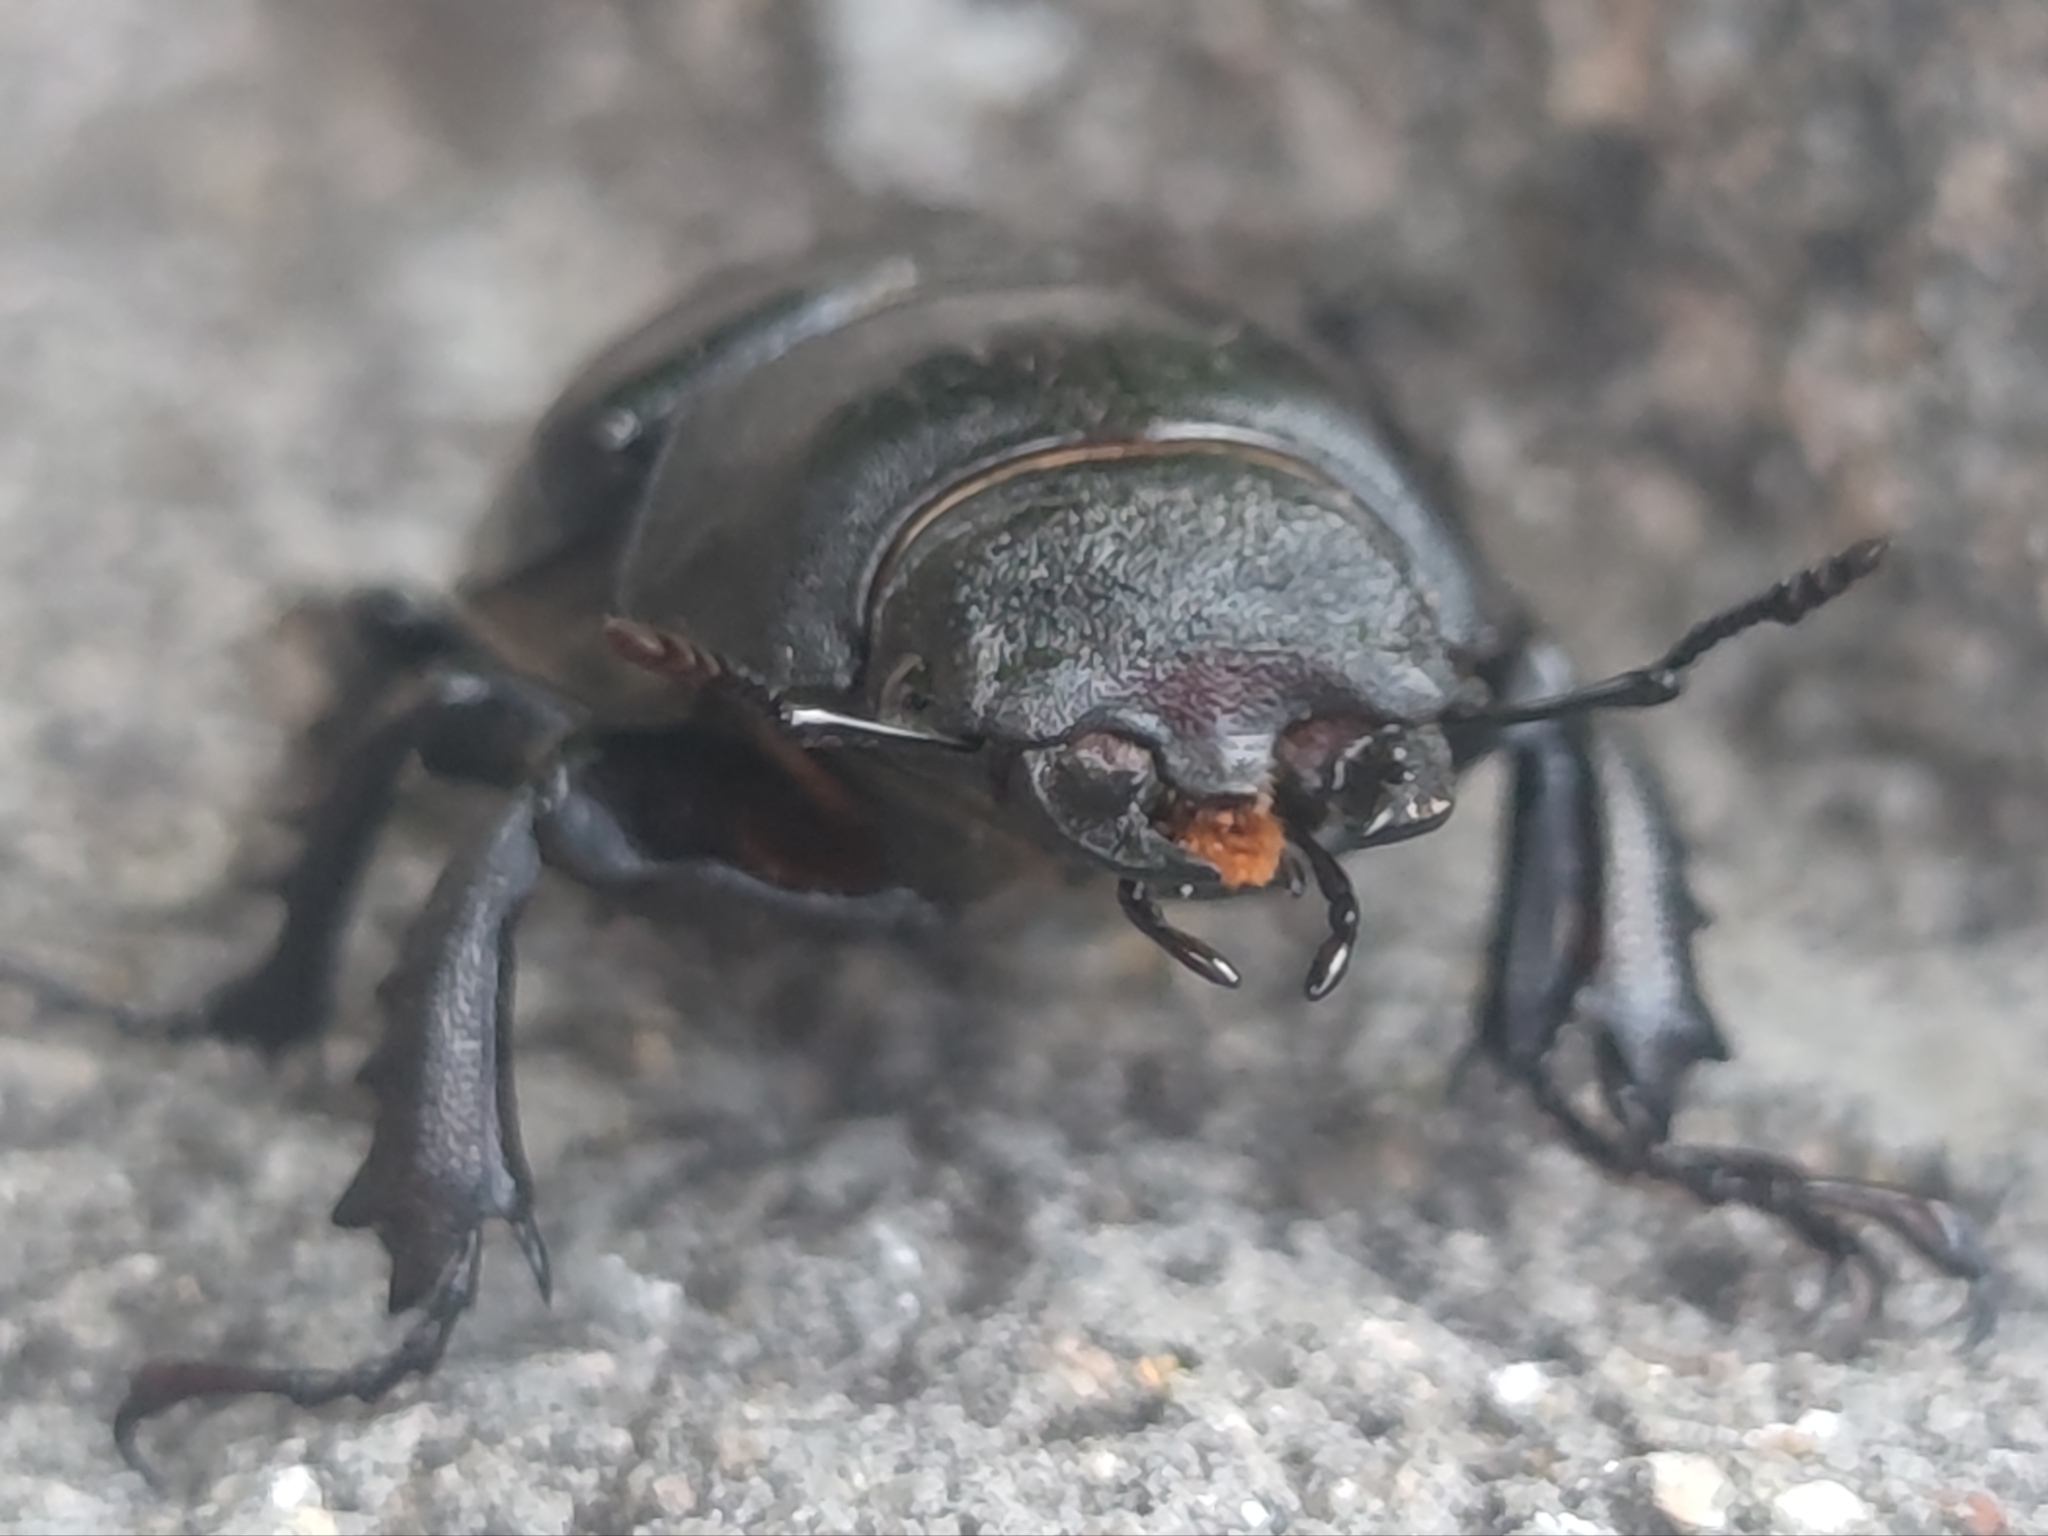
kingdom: Animalia
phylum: Arthropoda
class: Insecta
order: Coleoptera
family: Lucanidae
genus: Lucanus
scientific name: Lucanus cervus
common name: Stag beetle
